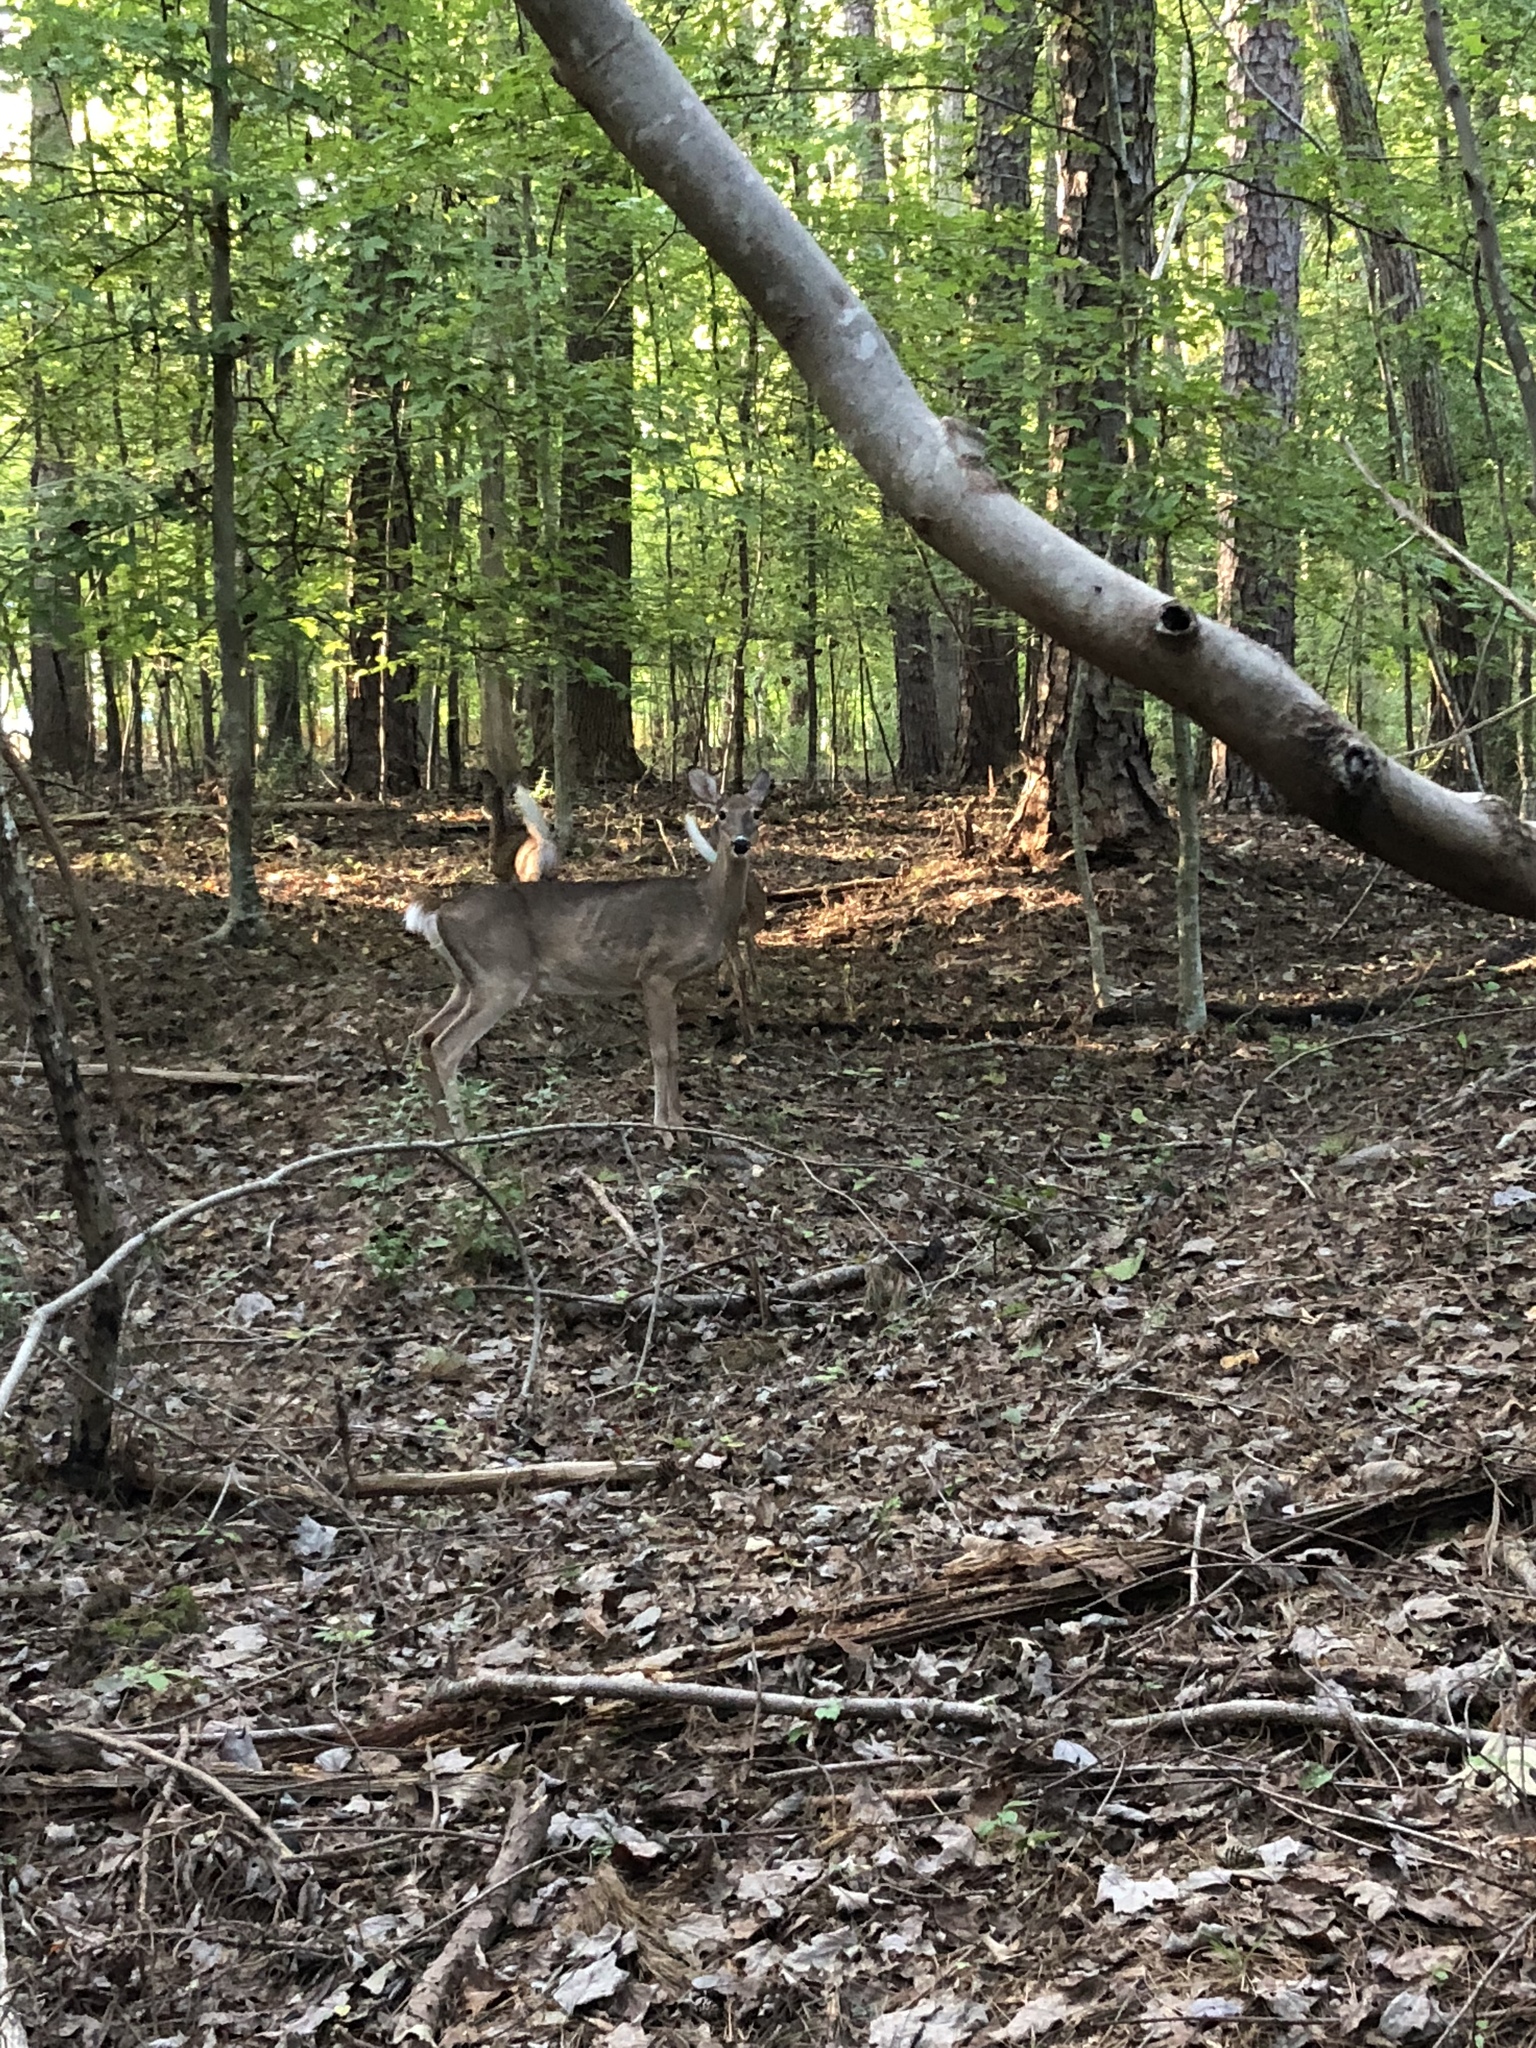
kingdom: Animalia
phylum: Chordata
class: Mammalia
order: Artiodactyla
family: Cervidae
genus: Odocoileus
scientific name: Odocoileus virginianus
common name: White-tailed deer
